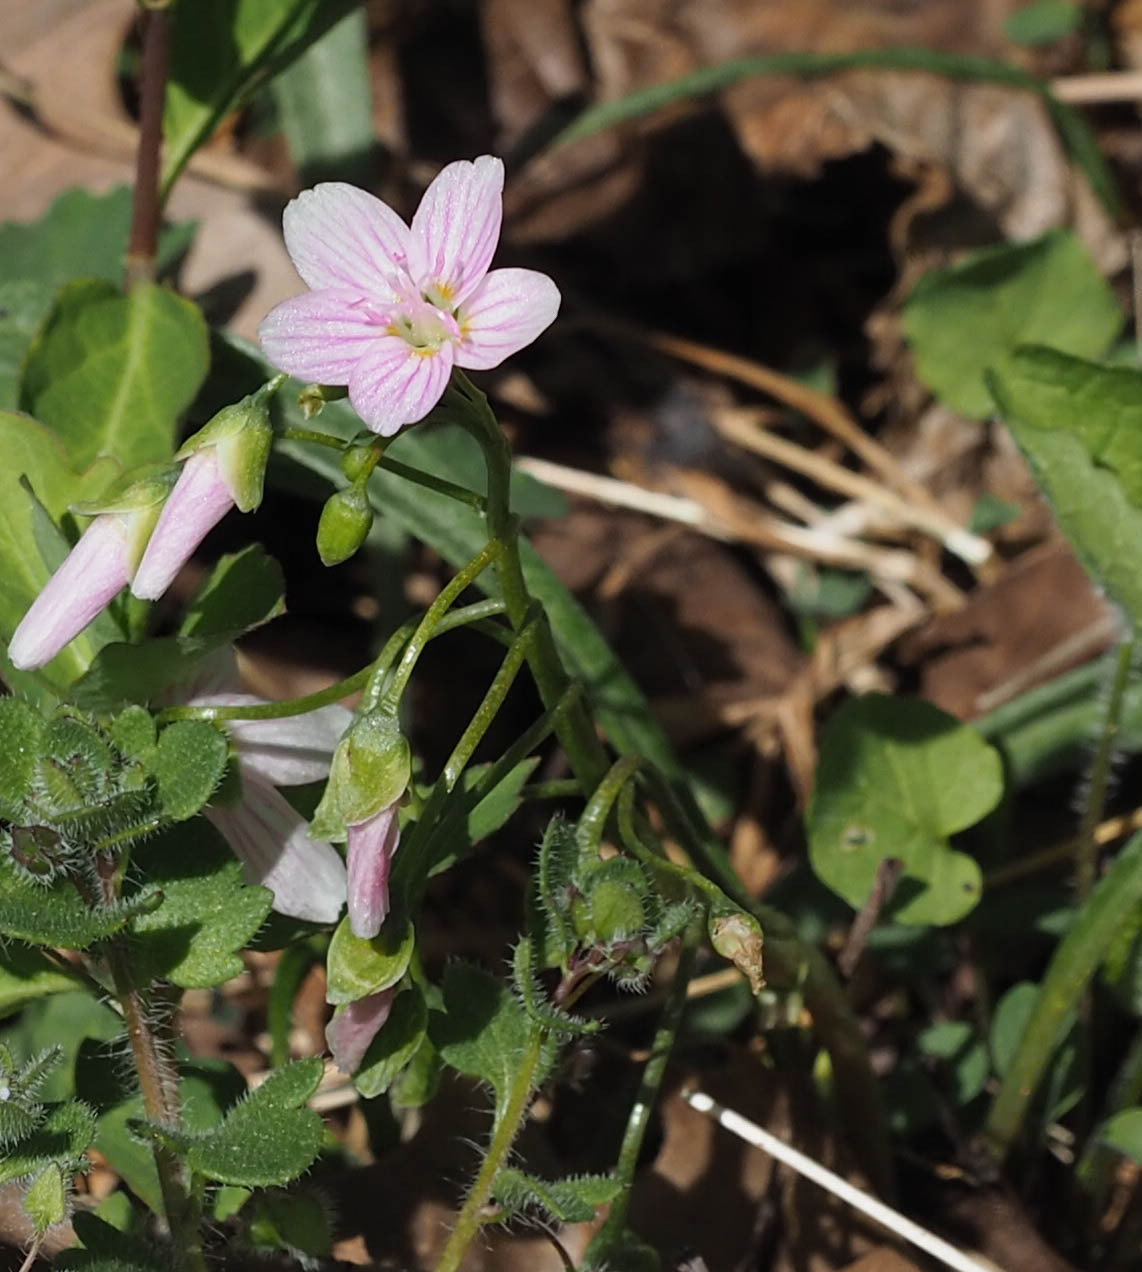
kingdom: Plantae
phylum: Tracheophyta
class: Magnoliopsida
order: Caryophyllales
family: Montiaceae
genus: Claytonia
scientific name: Claytonia virginica
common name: Virginia springbeauty
